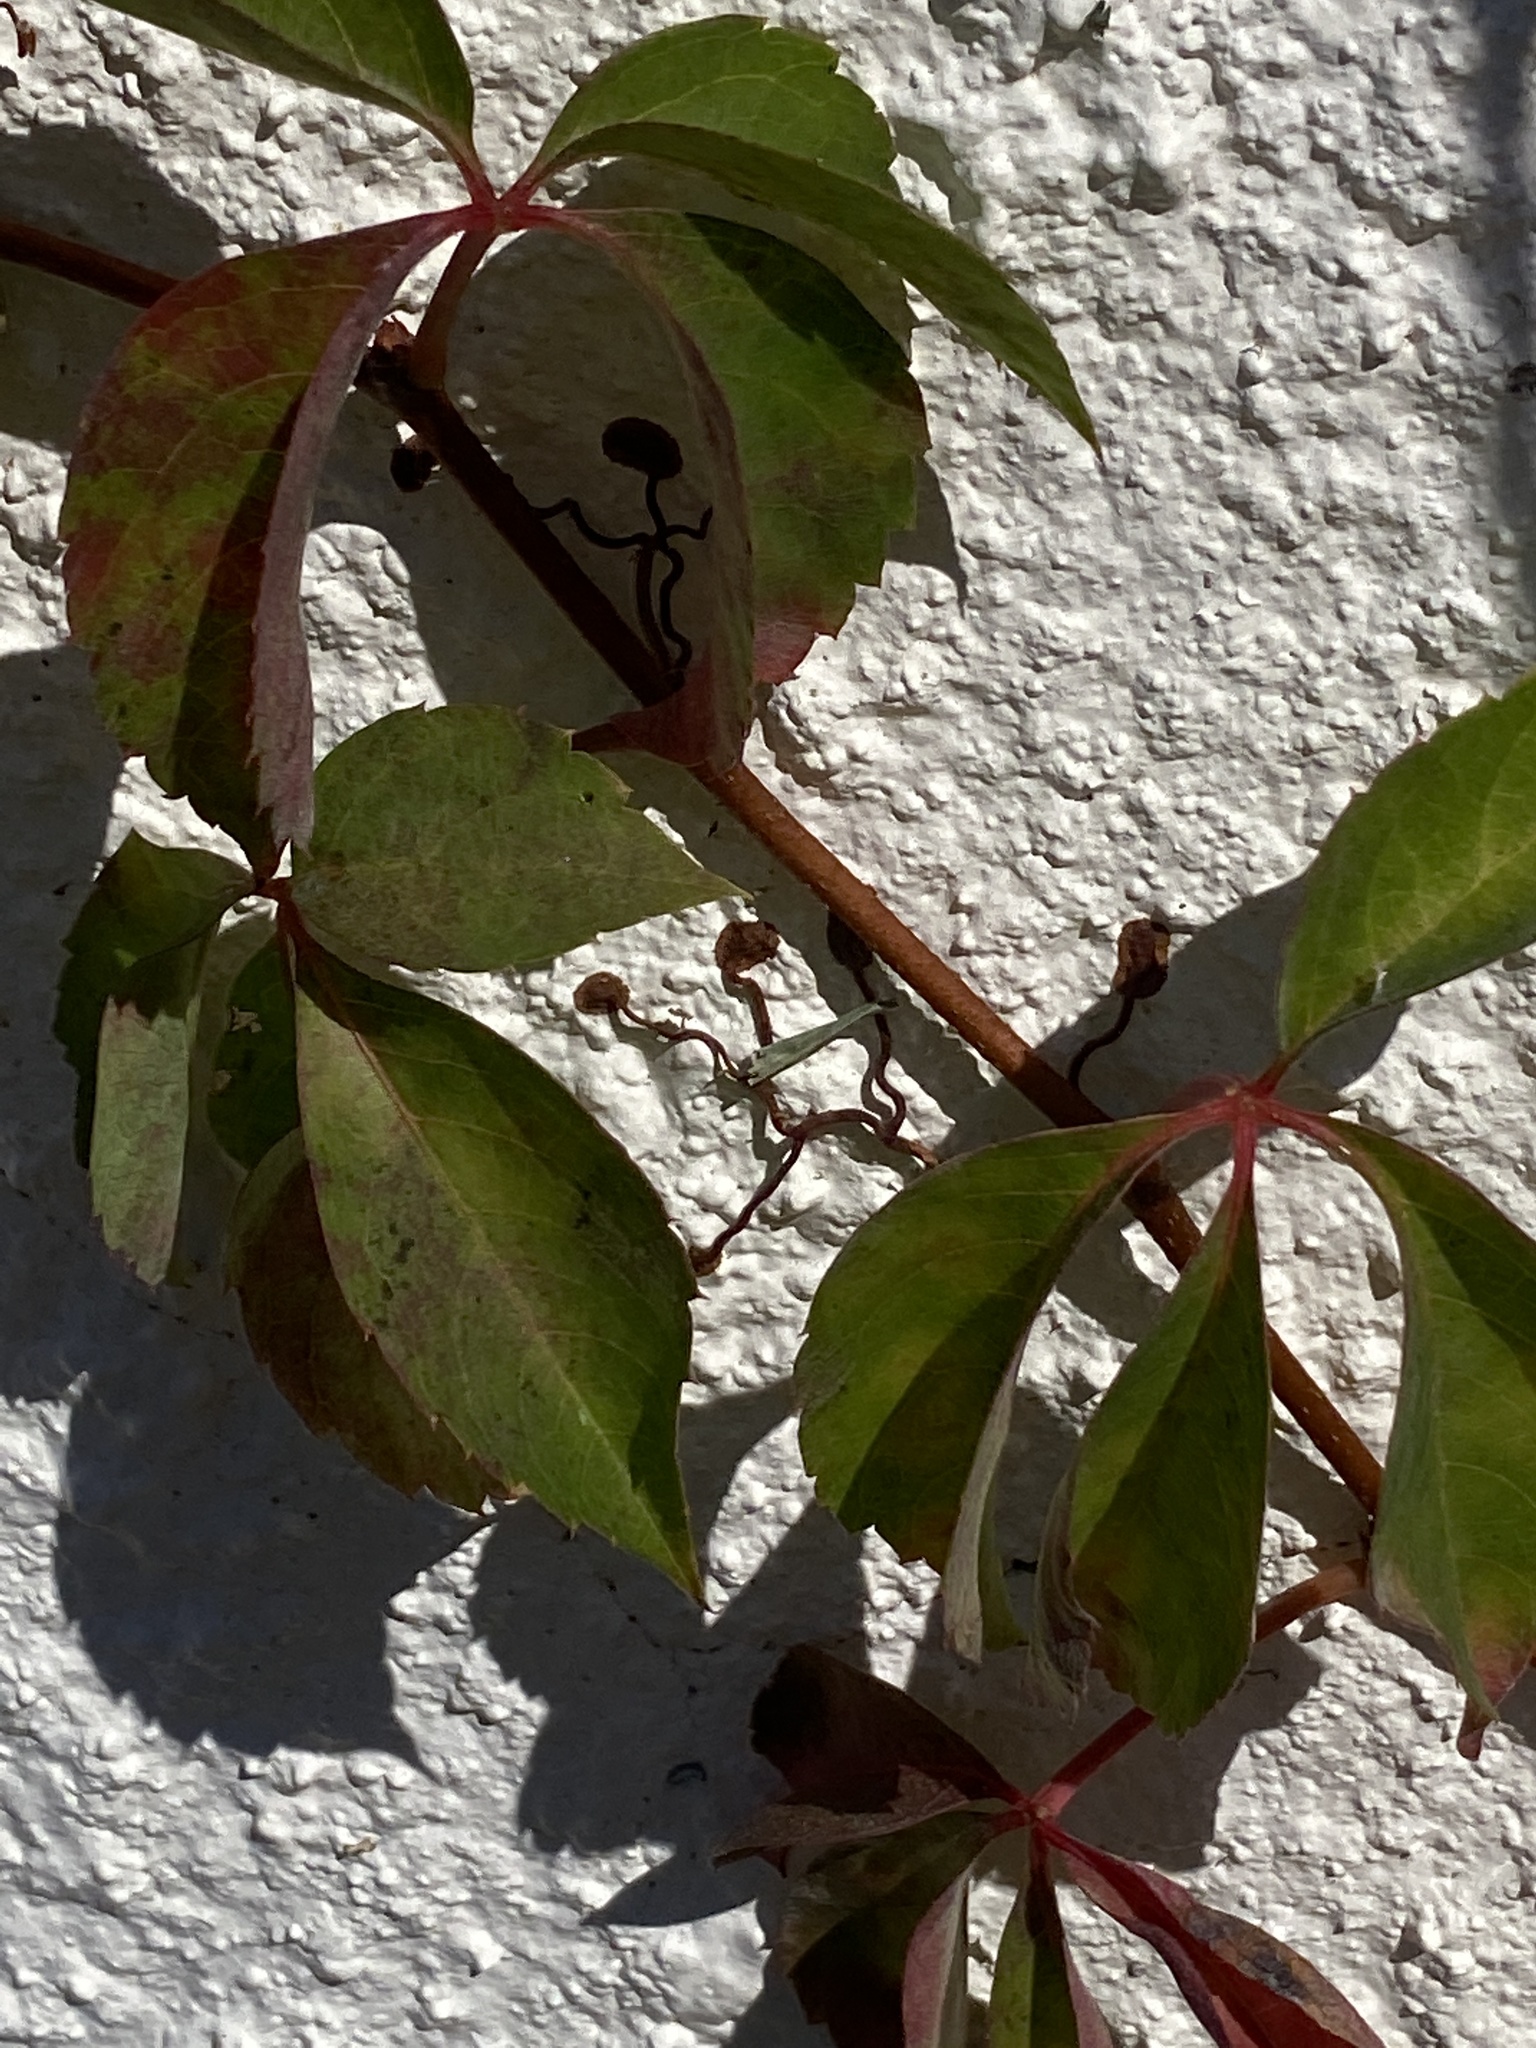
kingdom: Plantae
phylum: Tracheophyta
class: Magnoliopsida
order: Vitales
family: Vitaceae
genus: Parthenocissus
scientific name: Parthenocissus quinquefolia
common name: Virginia-creeper
